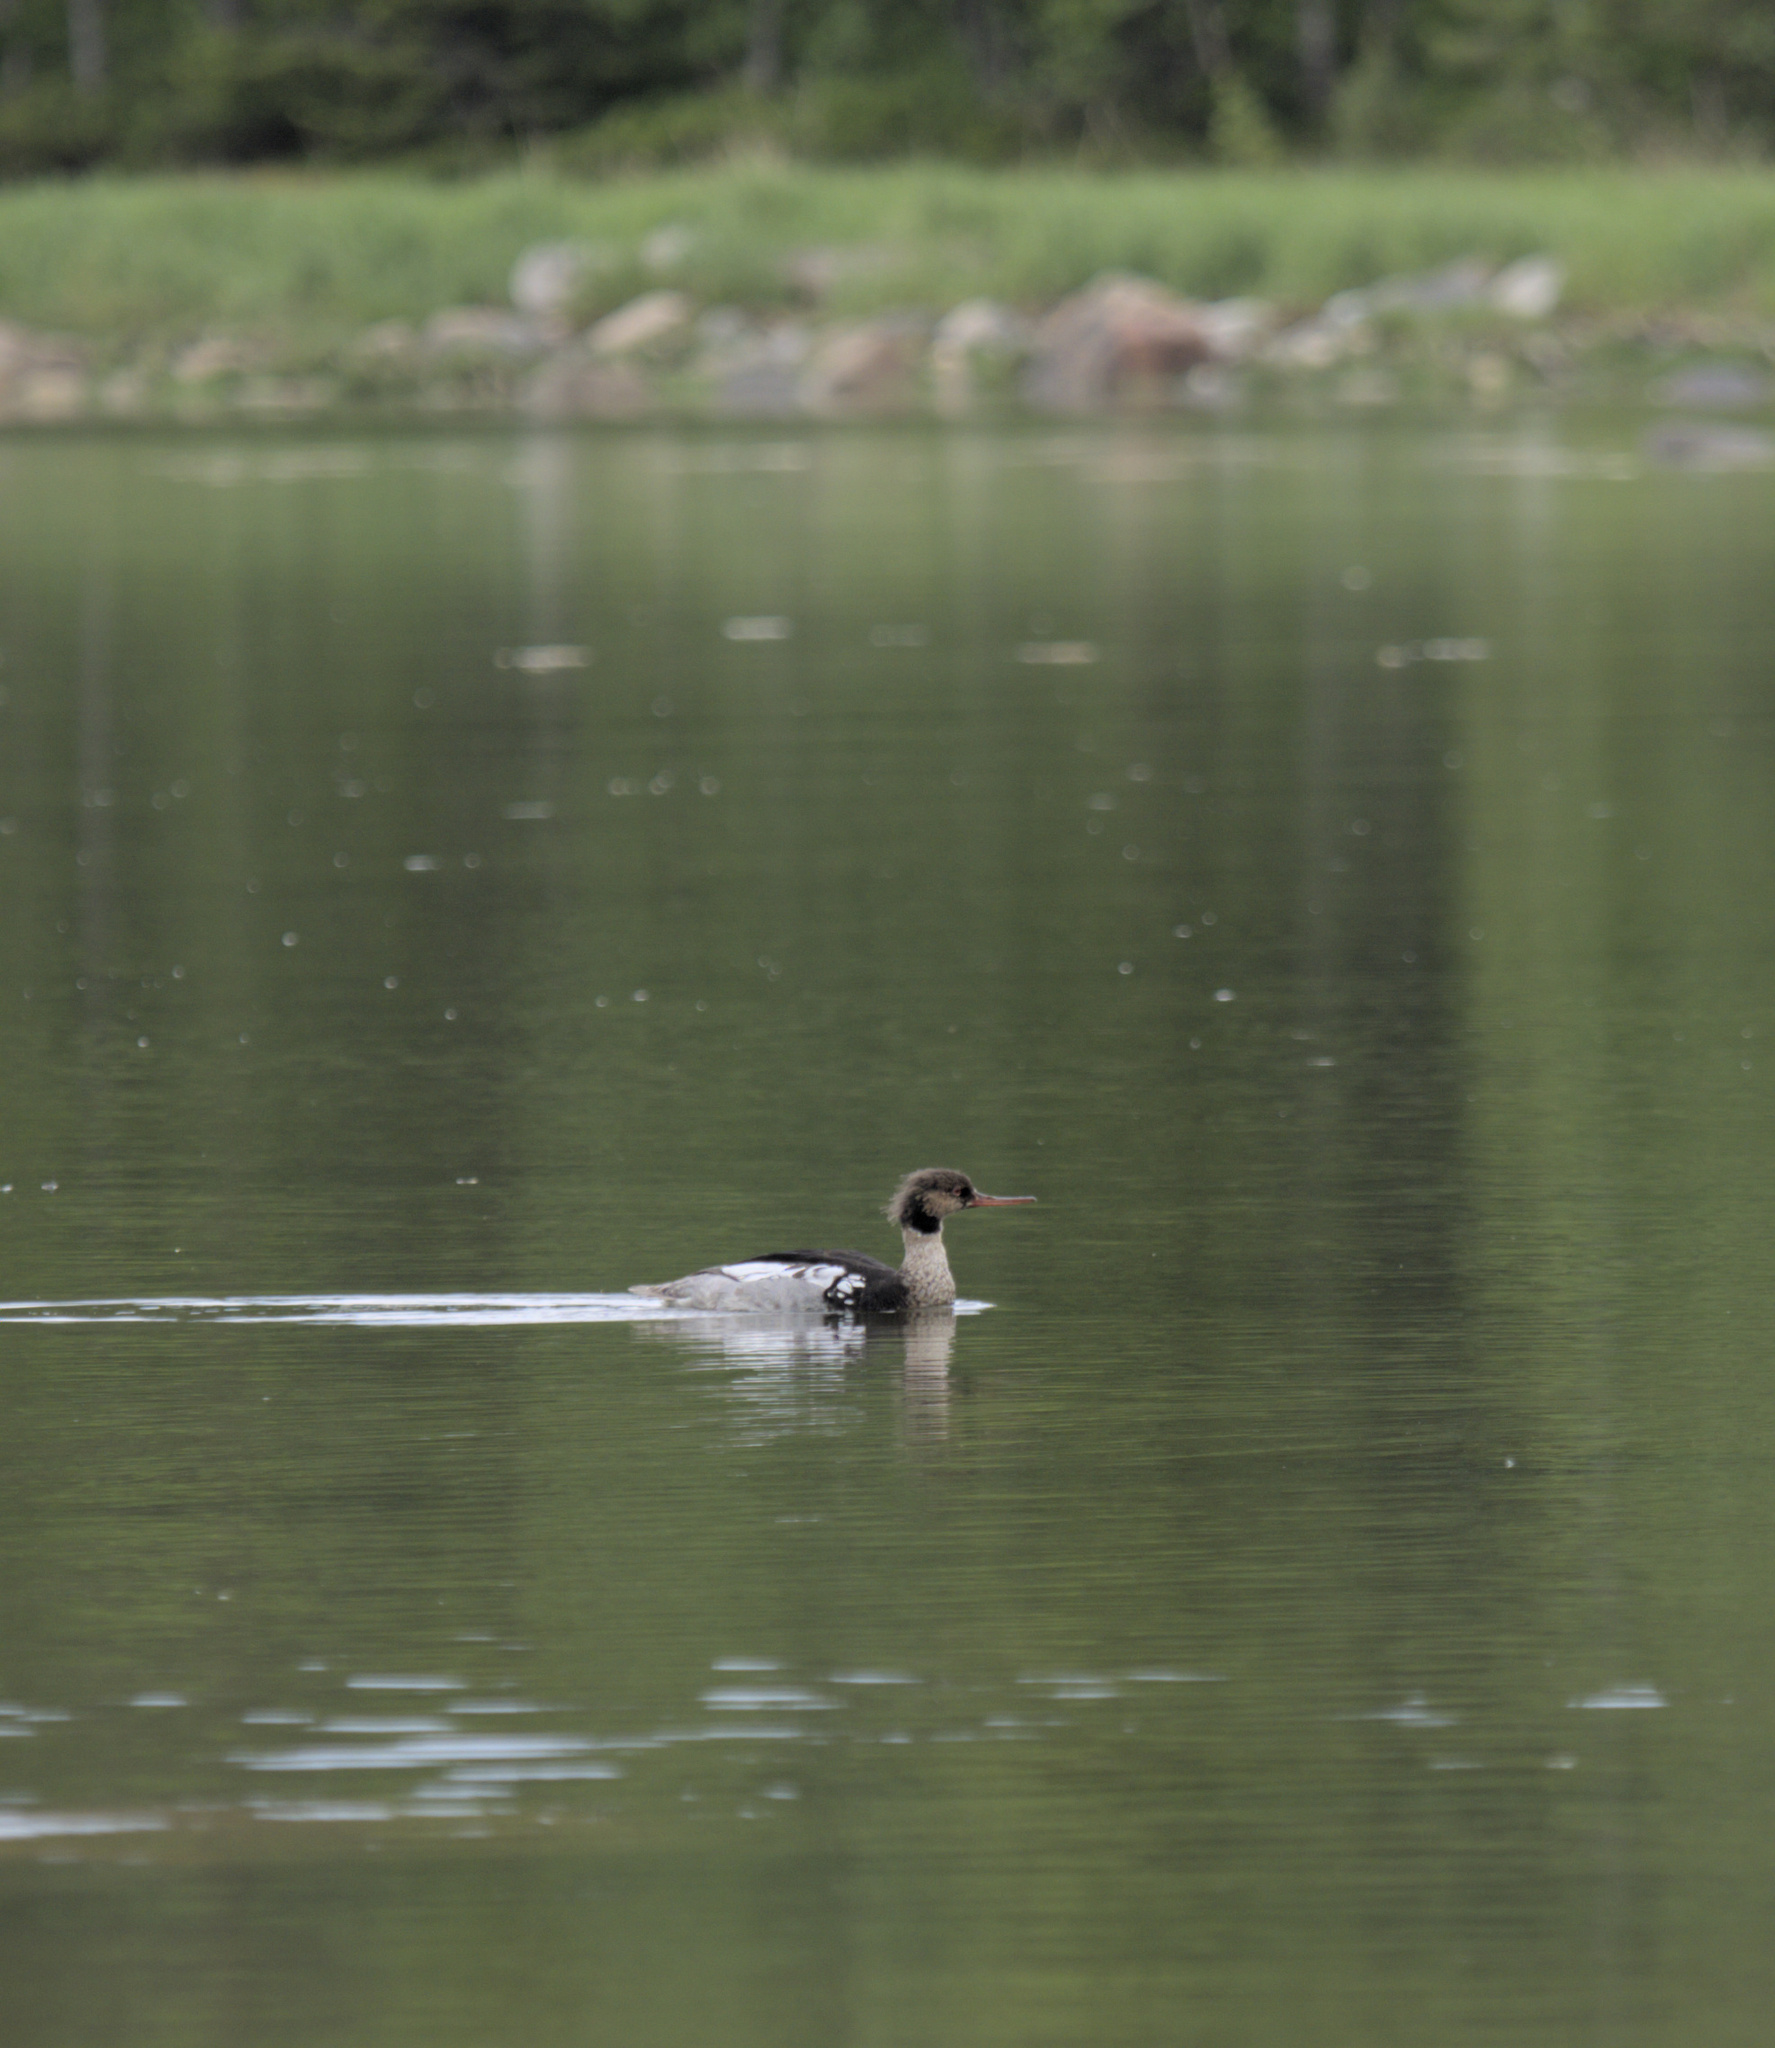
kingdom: Animalia
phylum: Chordata
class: Aves
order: Anseriformes
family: Anatidae
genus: Mergus
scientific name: Mergus serrator
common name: Red-breasted merganser
